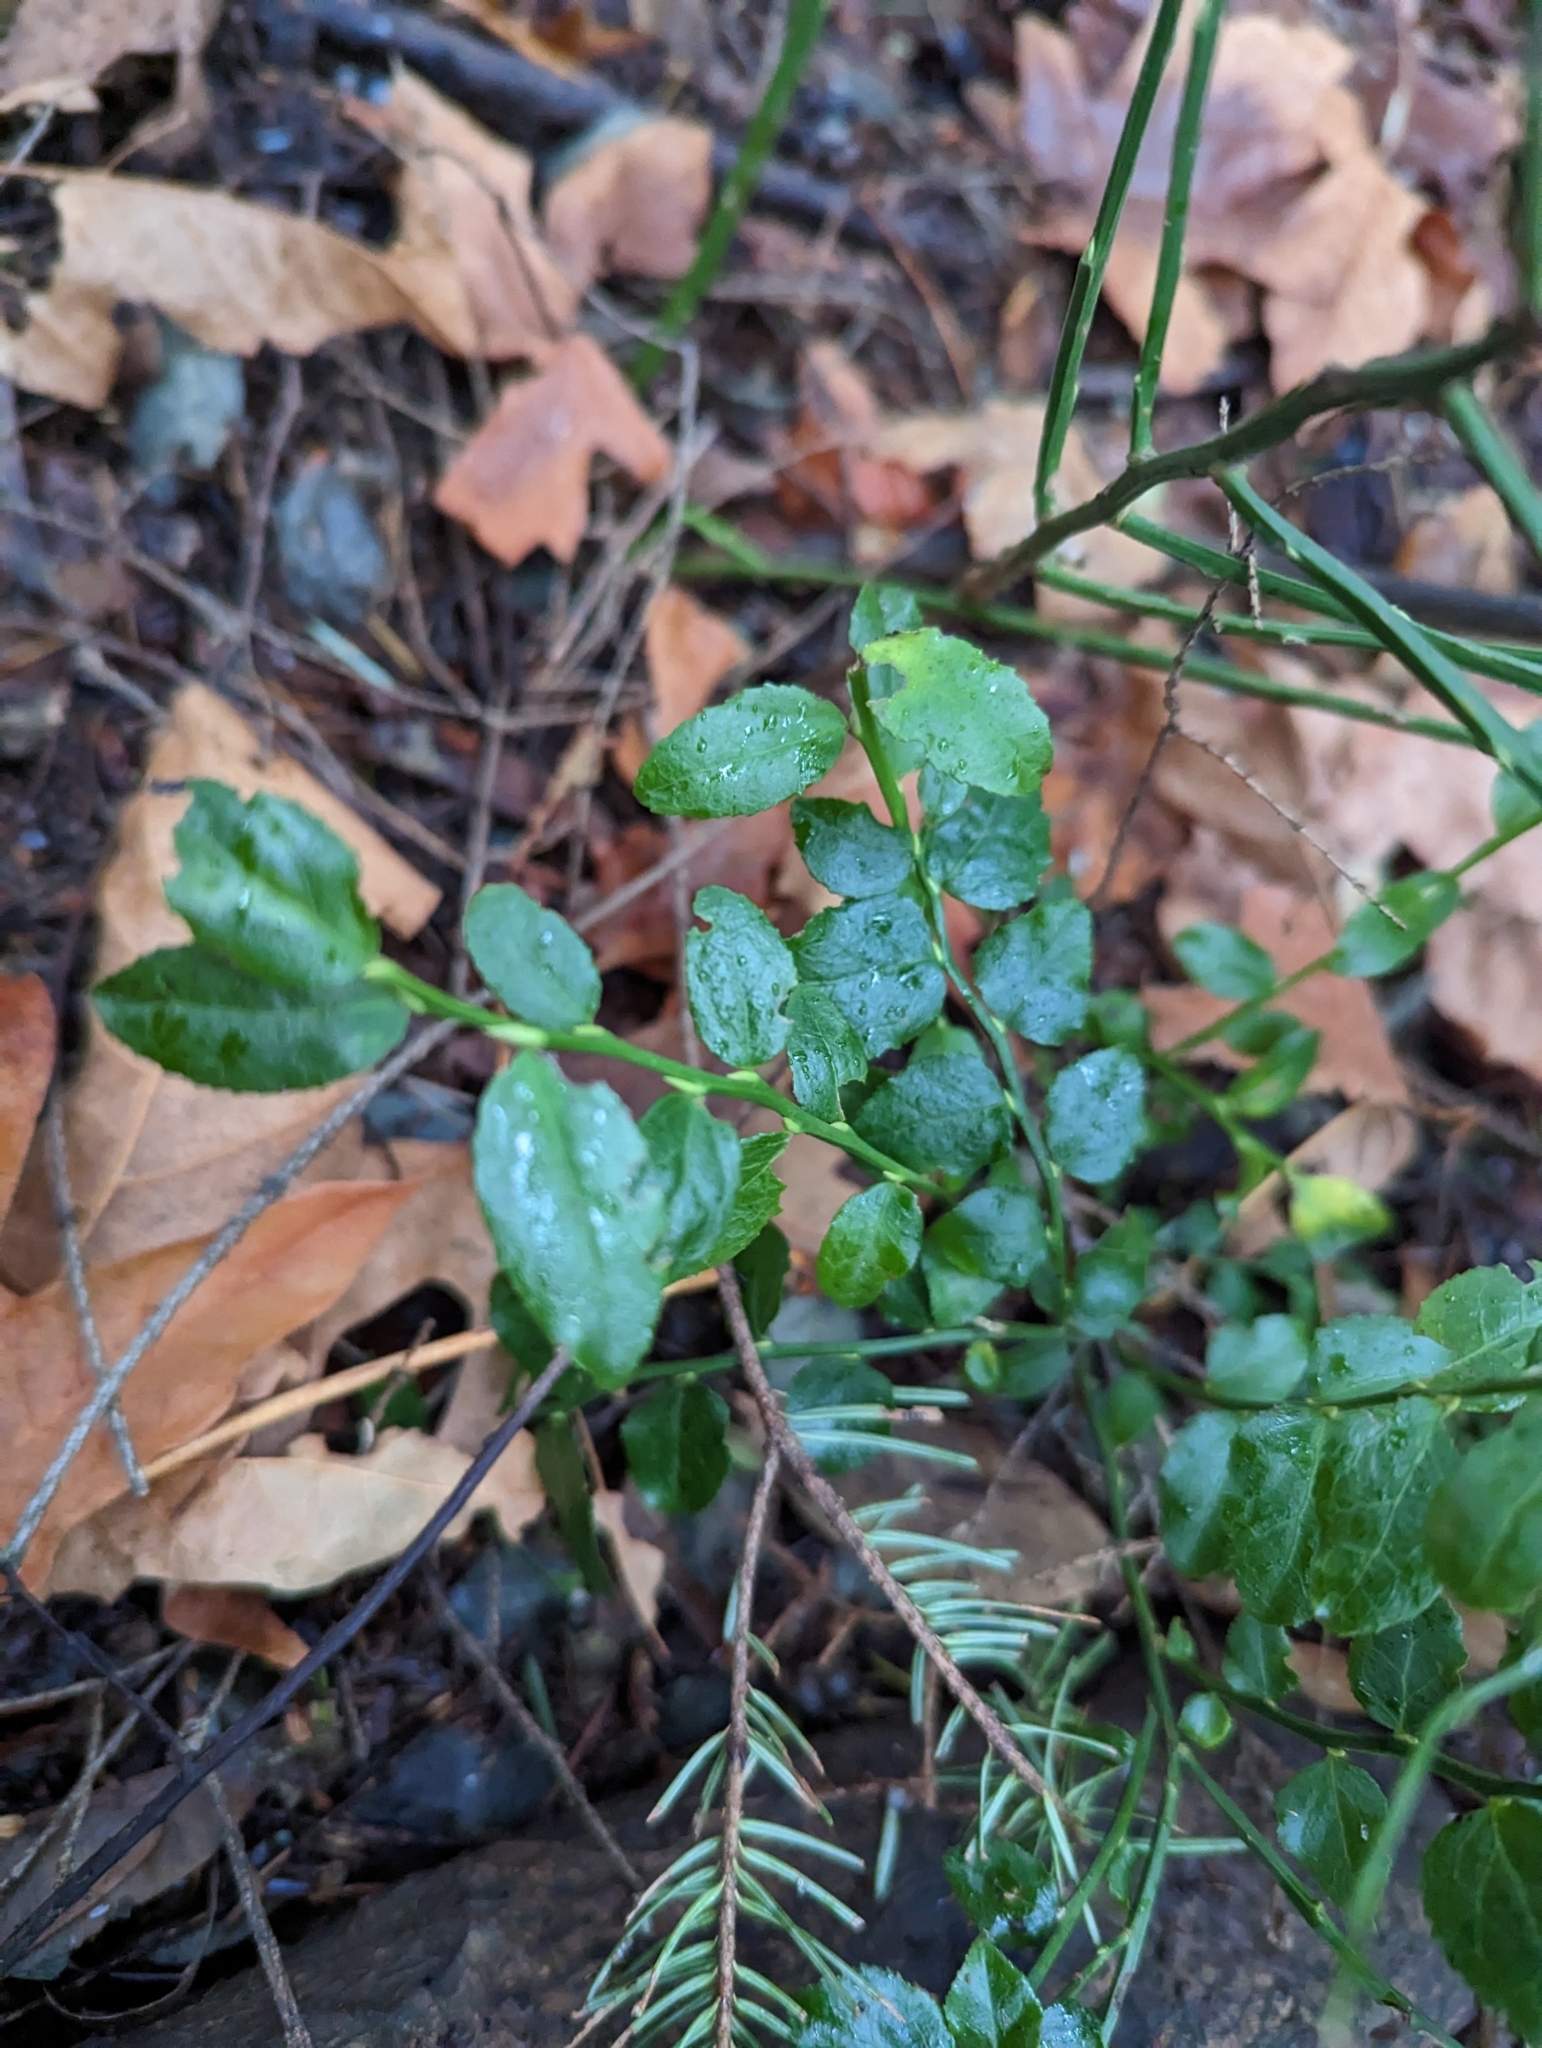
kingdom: Plantae
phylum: Tracheophyta
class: Magnoliopsida
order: Ericales
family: Ericaceae
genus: Vaccinium
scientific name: Vaccinium parvifolium
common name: Red-huckleberry
